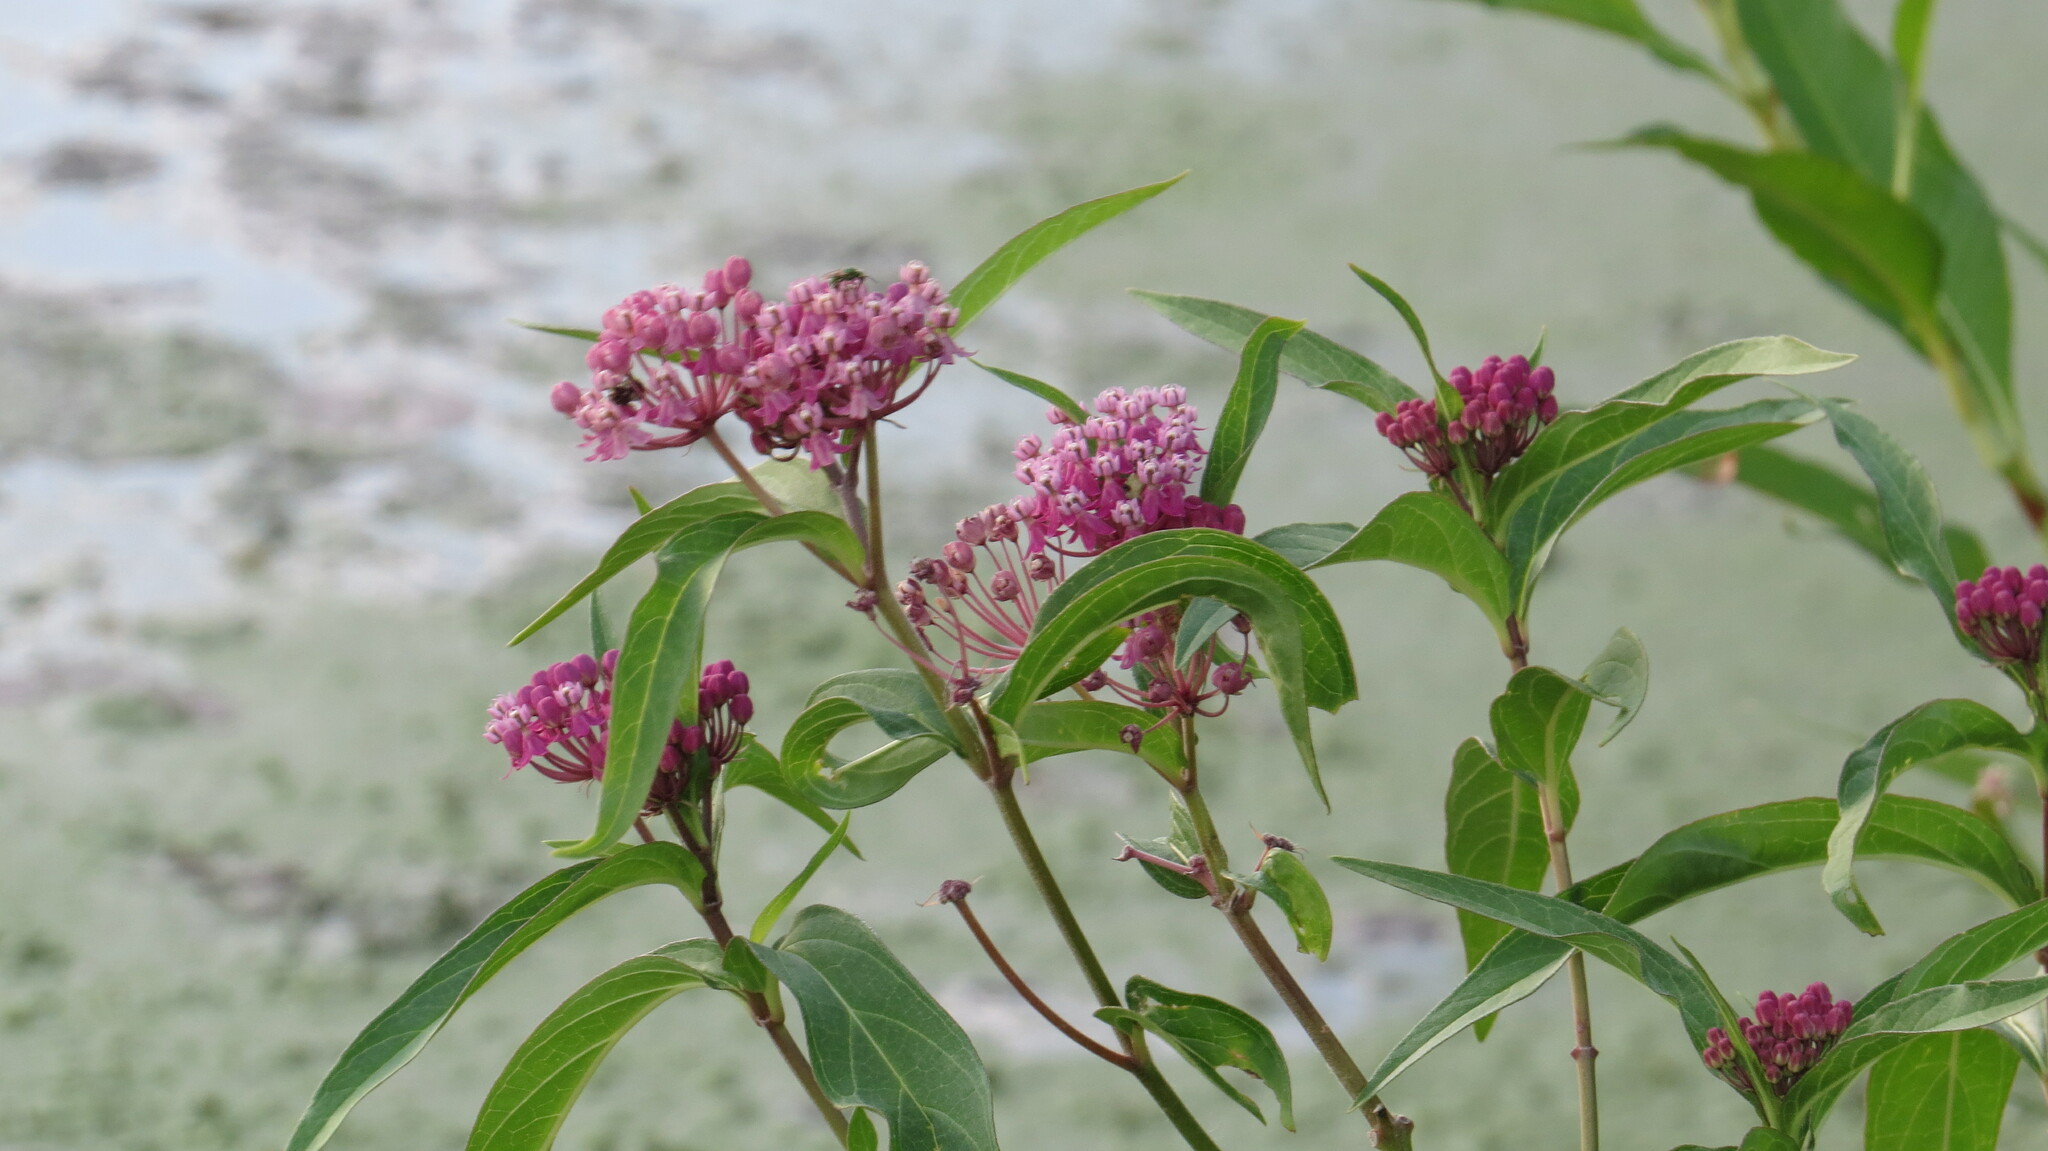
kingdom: Plantae
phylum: Tracheophyta
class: Magnoliopsida
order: Gentianales
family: Apocynaceae
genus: Asclepias
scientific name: Asclepias incarnata
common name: Swamp milkweed
